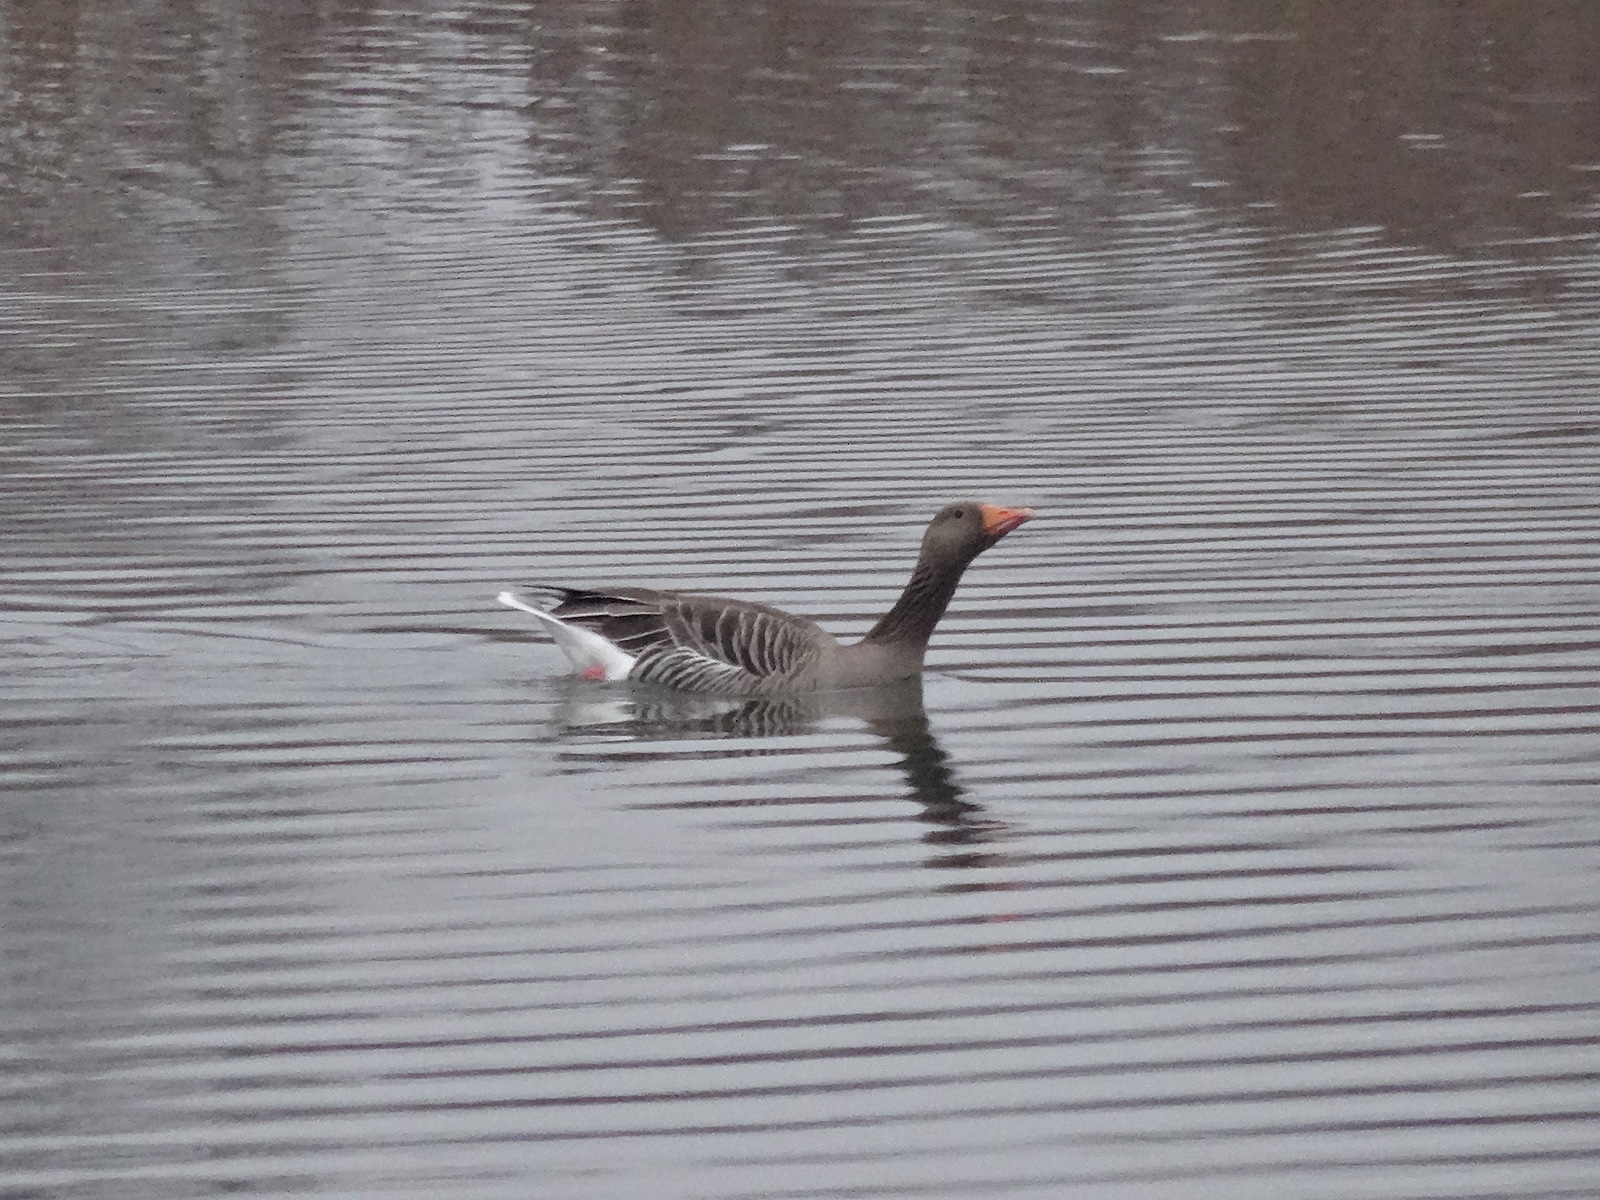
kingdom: Animalia
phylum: Chordata
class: Aves
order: Anseriformes
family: Anatidae
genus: Anser
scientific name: Anser anser
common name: Greylag goose
